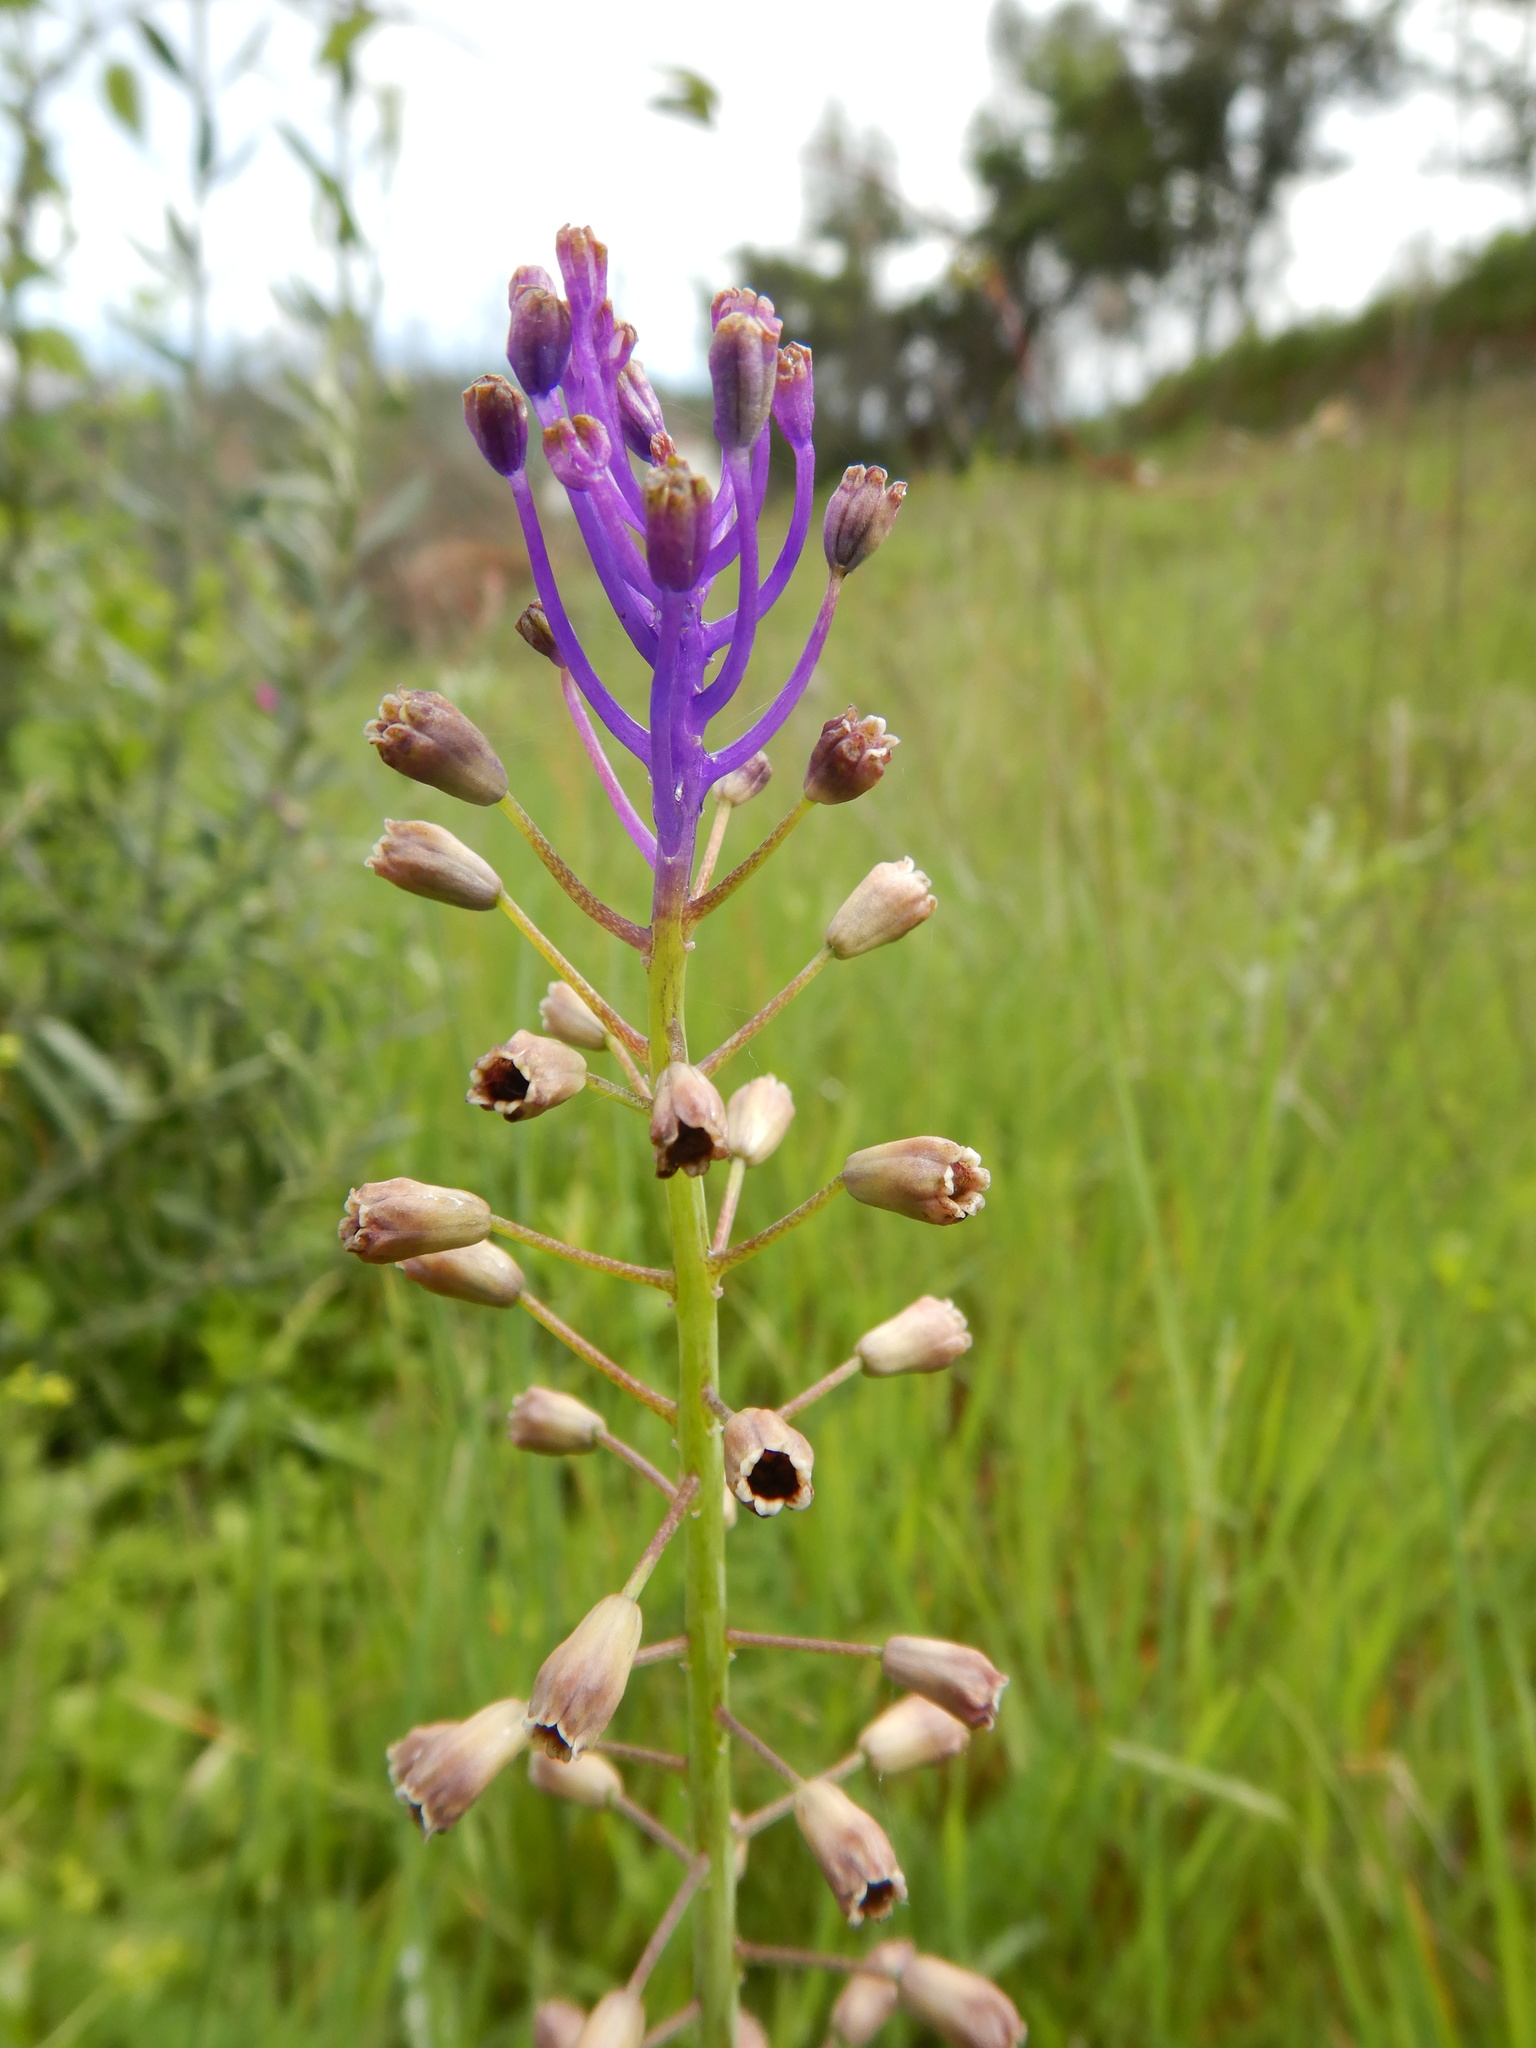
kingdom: Plantae
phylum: Tracheophyta
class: Liliopsida
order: Asparagales
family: Asparagaceae
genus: Muscari
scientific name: Muscari comosum
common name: Tassel hyacinth
